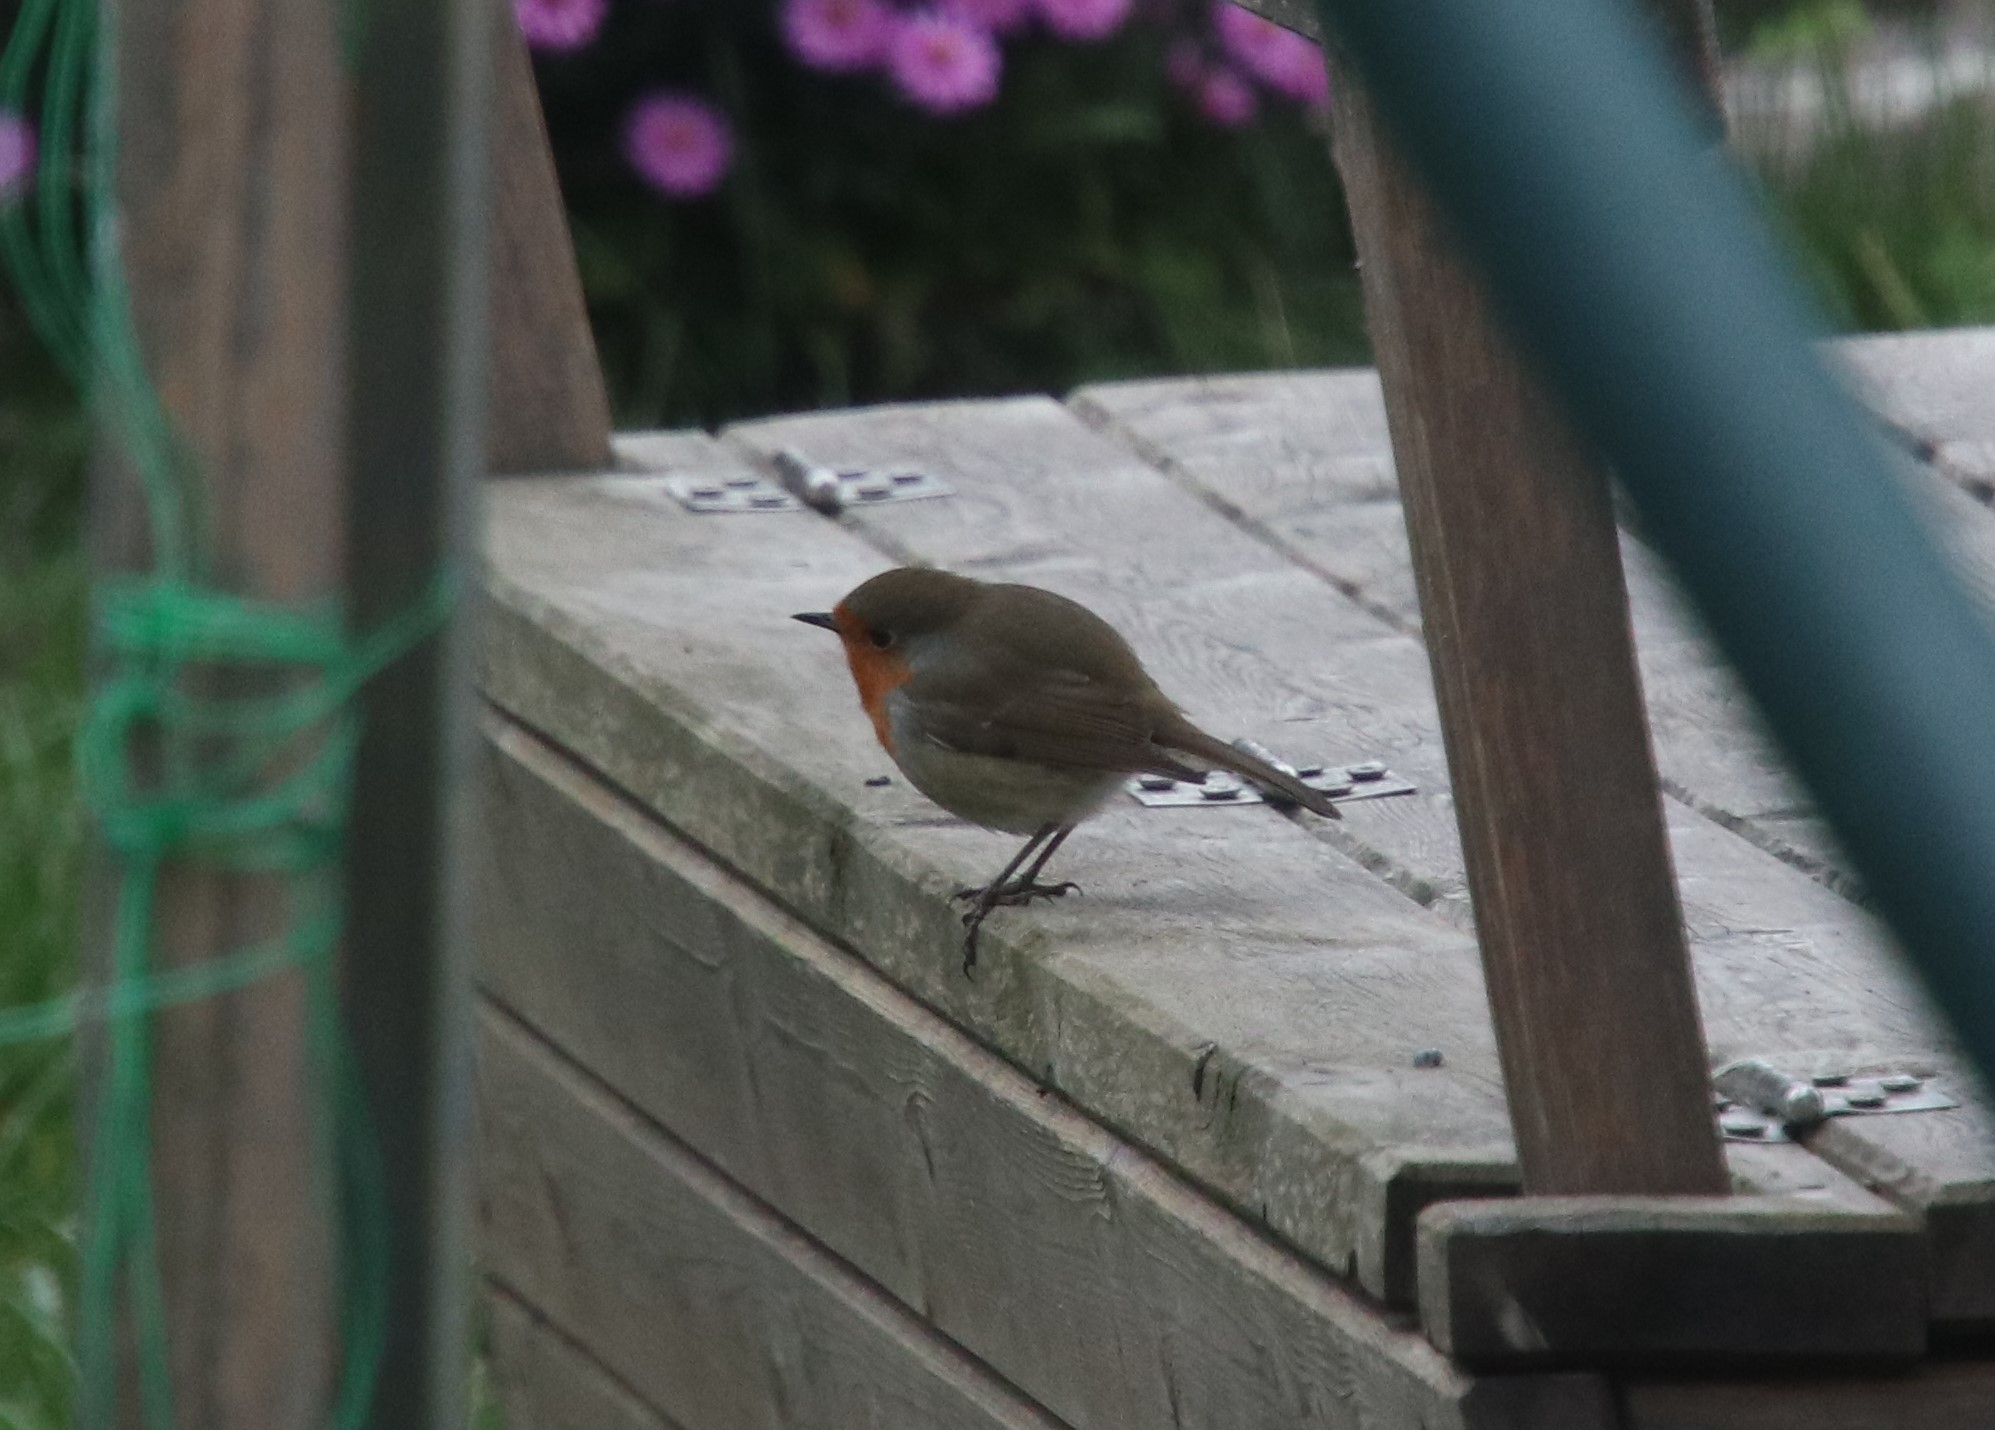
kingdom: Animalia
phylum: Chordata
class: Aves
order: Passeriformes
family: Muscicapidae
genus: Erithacus
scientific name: Erithacus rubecula
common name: European robin
